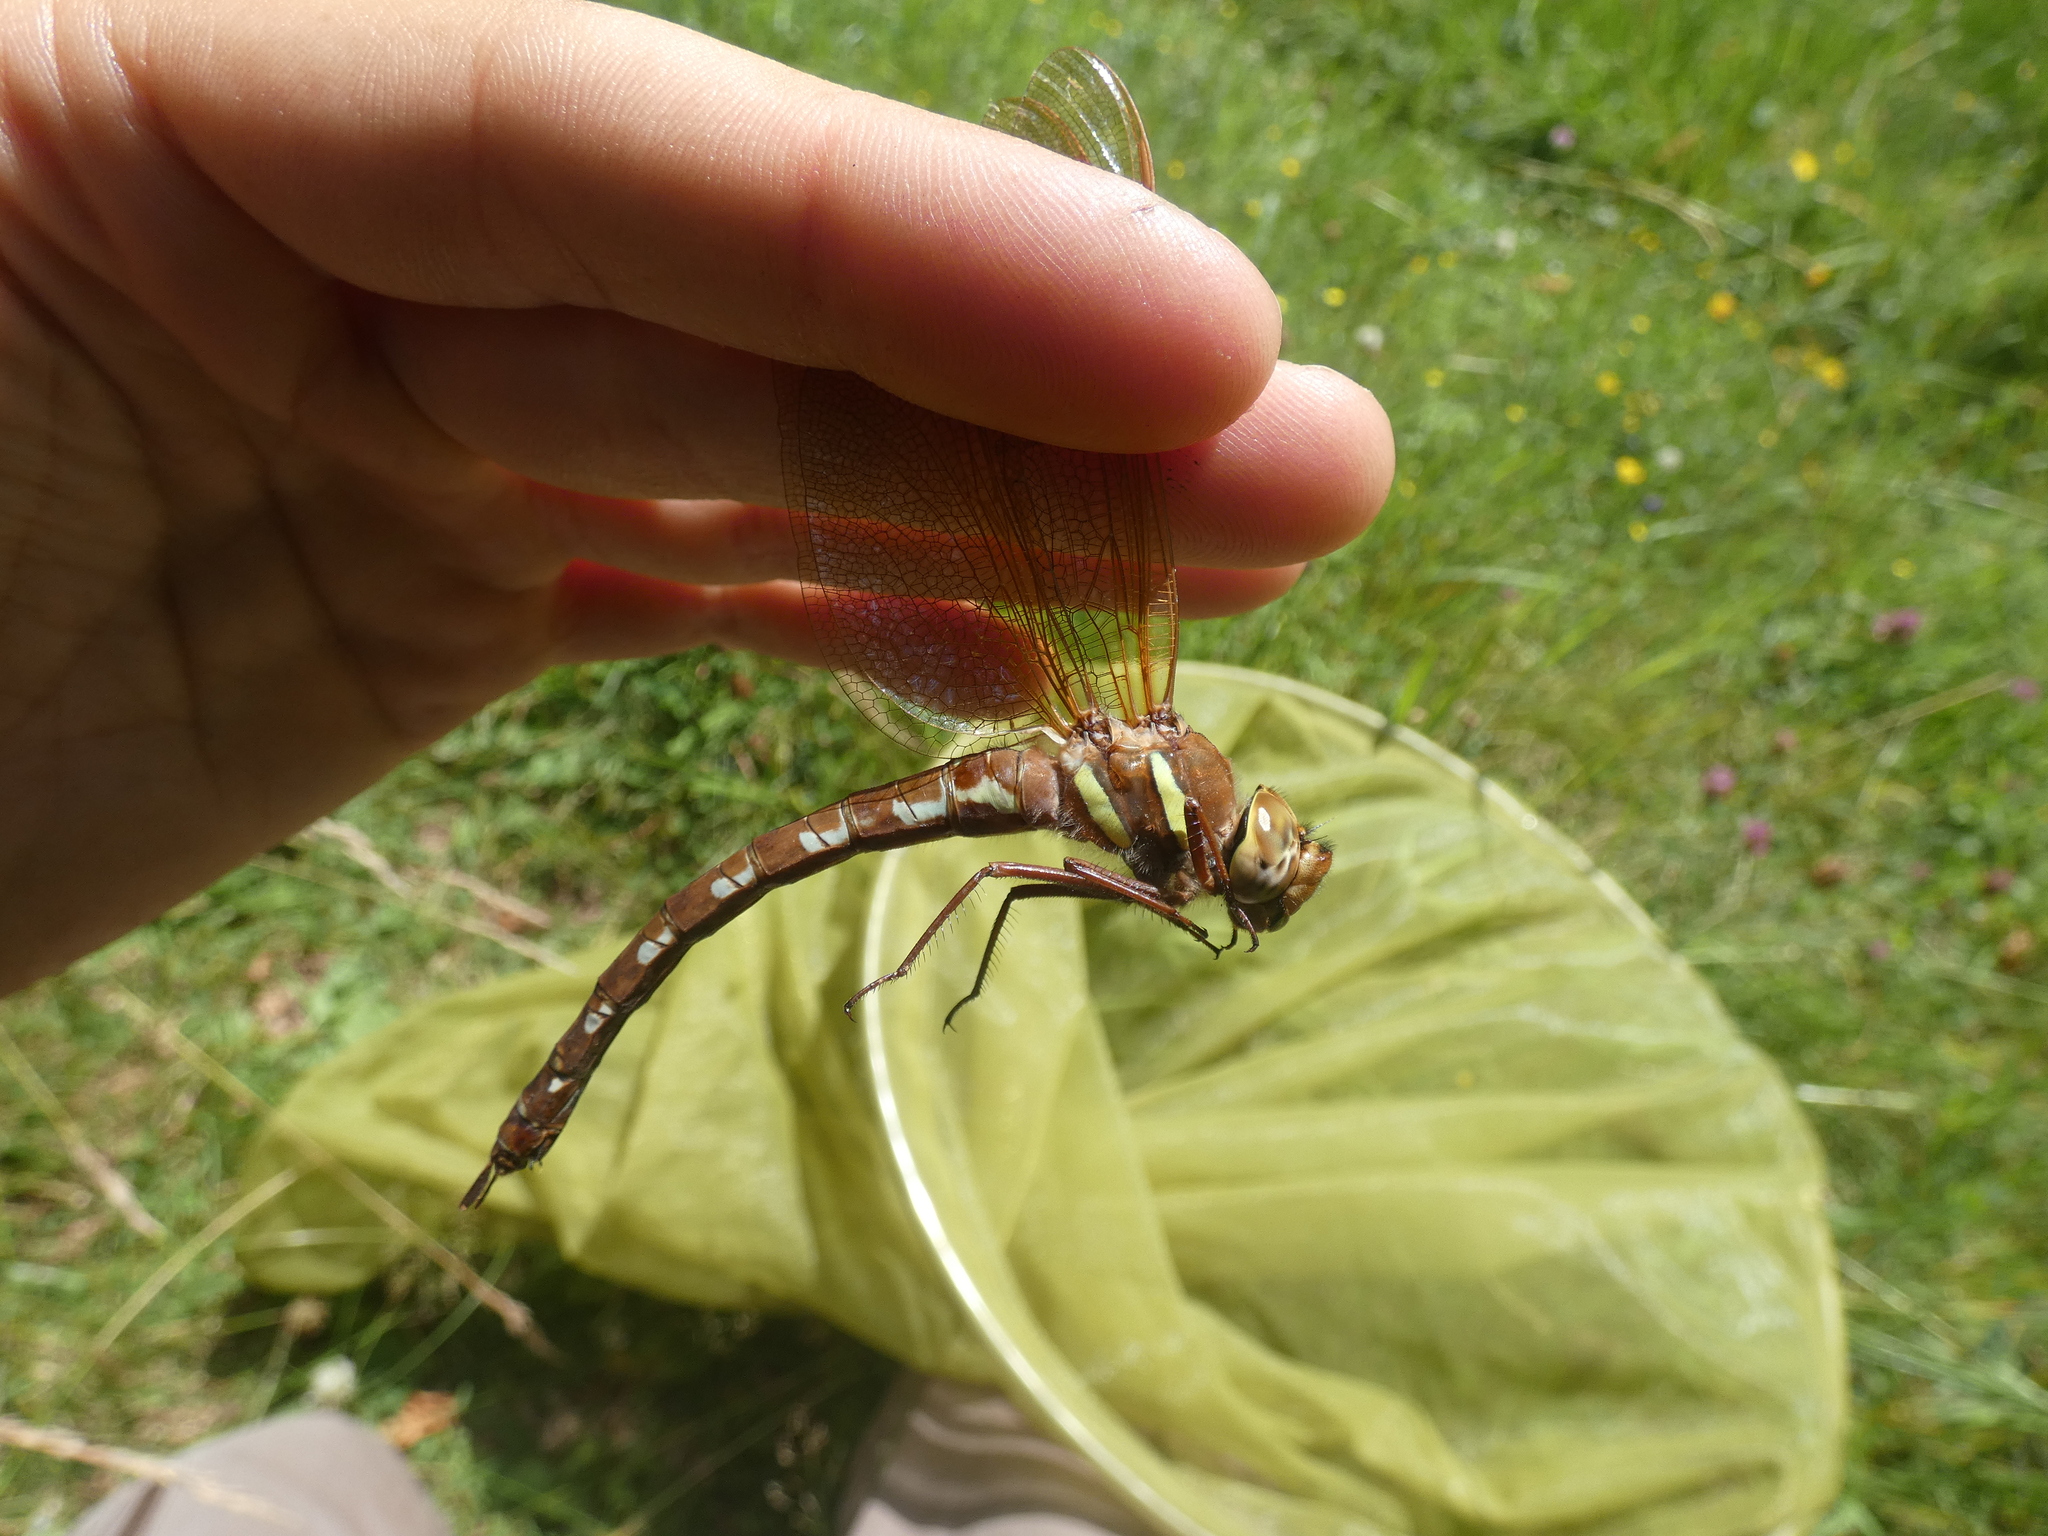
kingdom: Animalia
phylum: Arthropoda
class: Insecta
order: Odonata
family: Aeshnidae
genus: Aeshna
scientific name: Aeshna grandis
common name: Brown hawker
